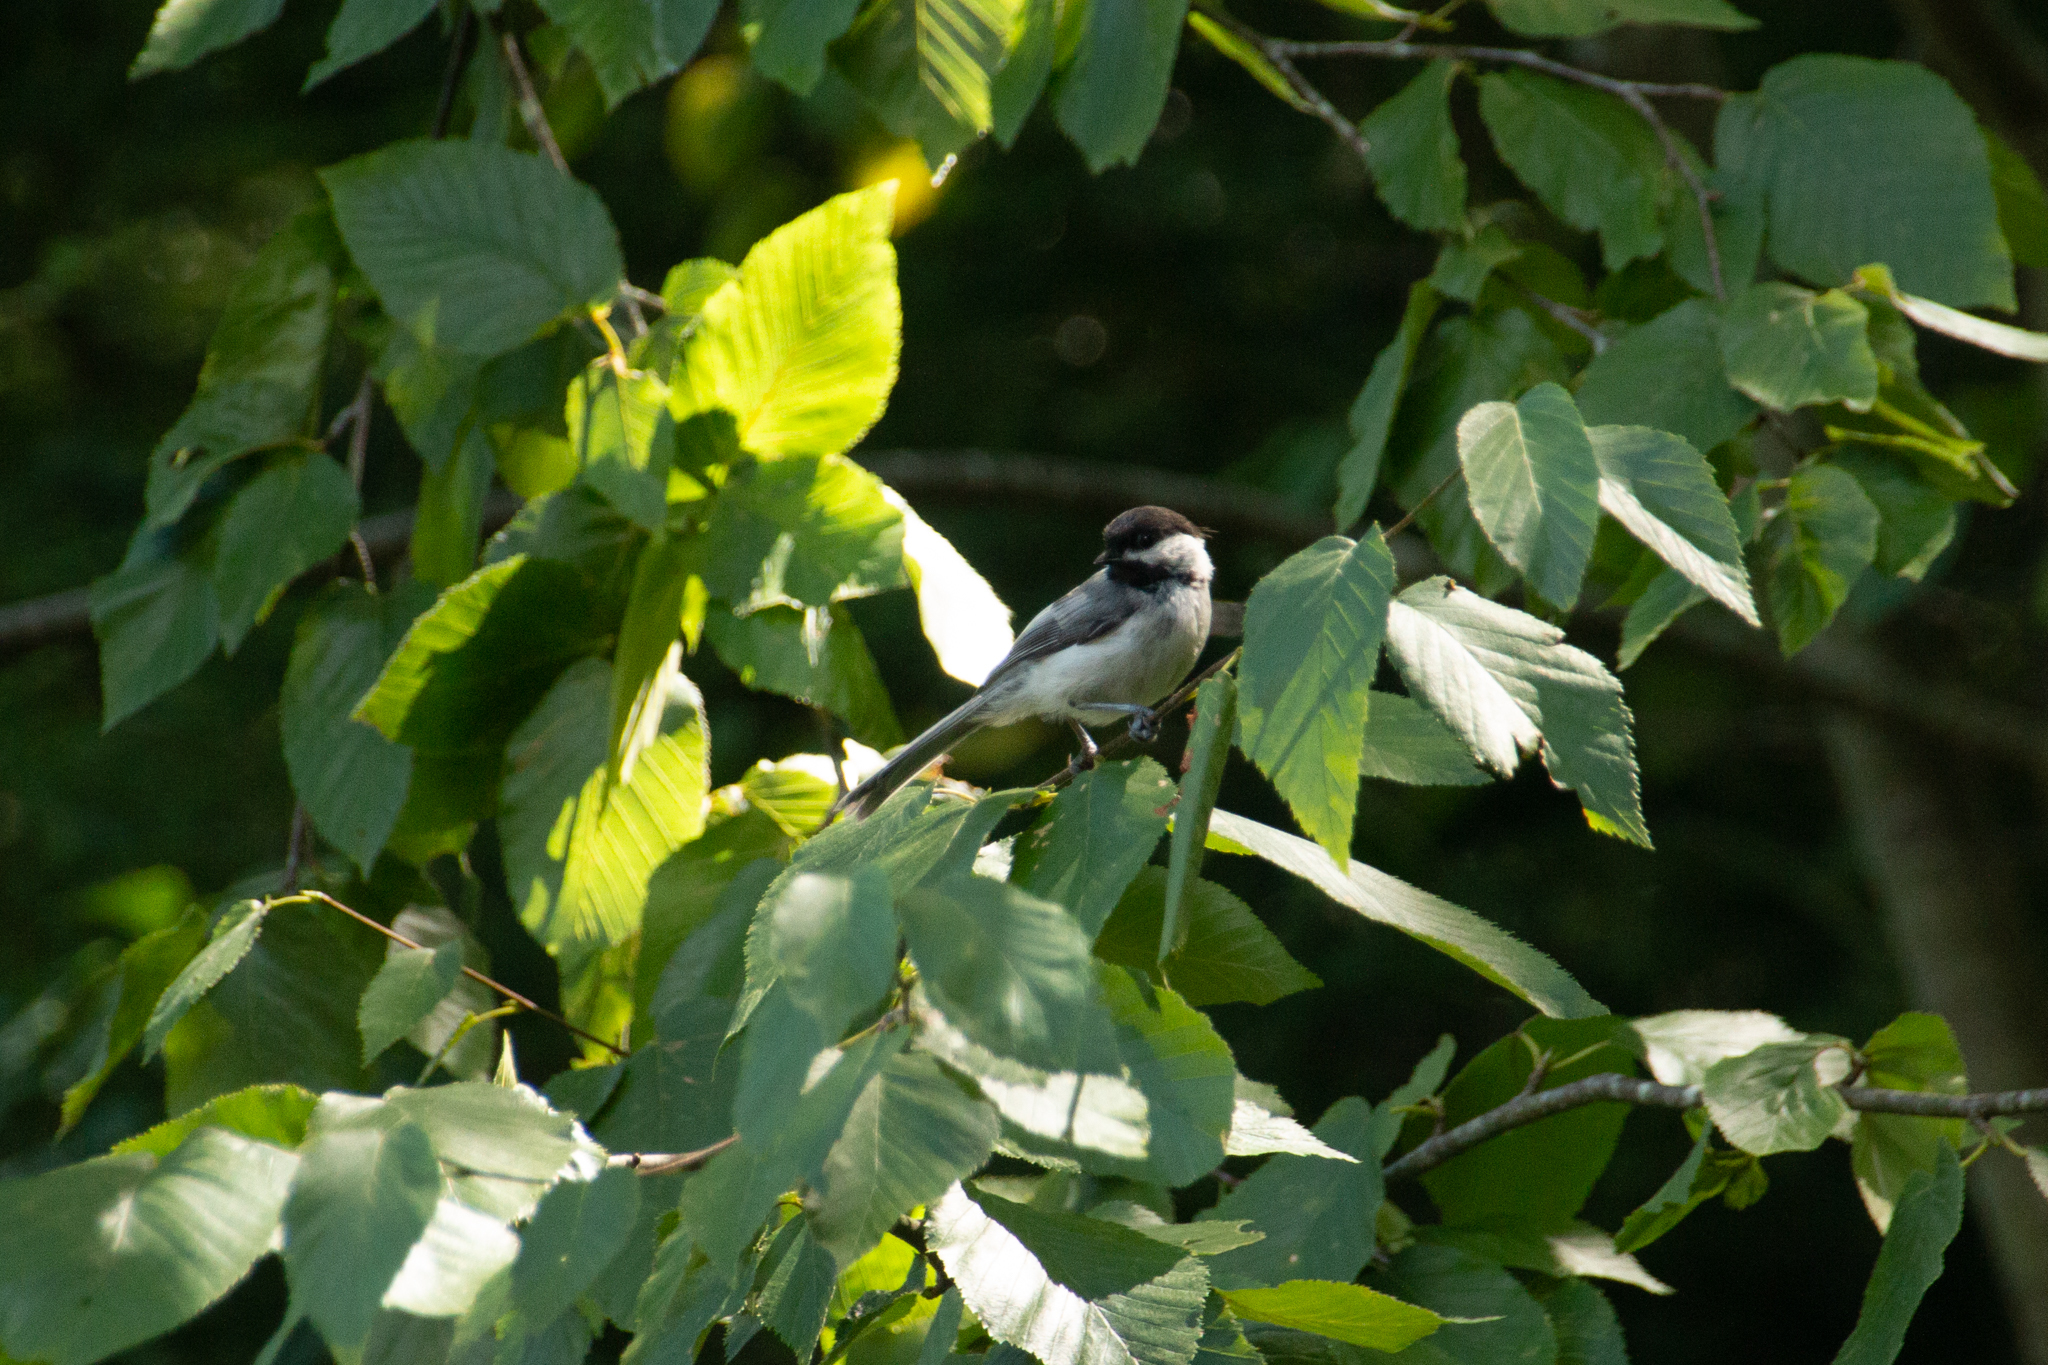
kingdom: Animalia
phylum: Chordata
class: Aves
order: Passeriformes
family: Paridae
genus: Poecile
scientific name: Poecile atricapillus
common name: Black-capped chickadee
